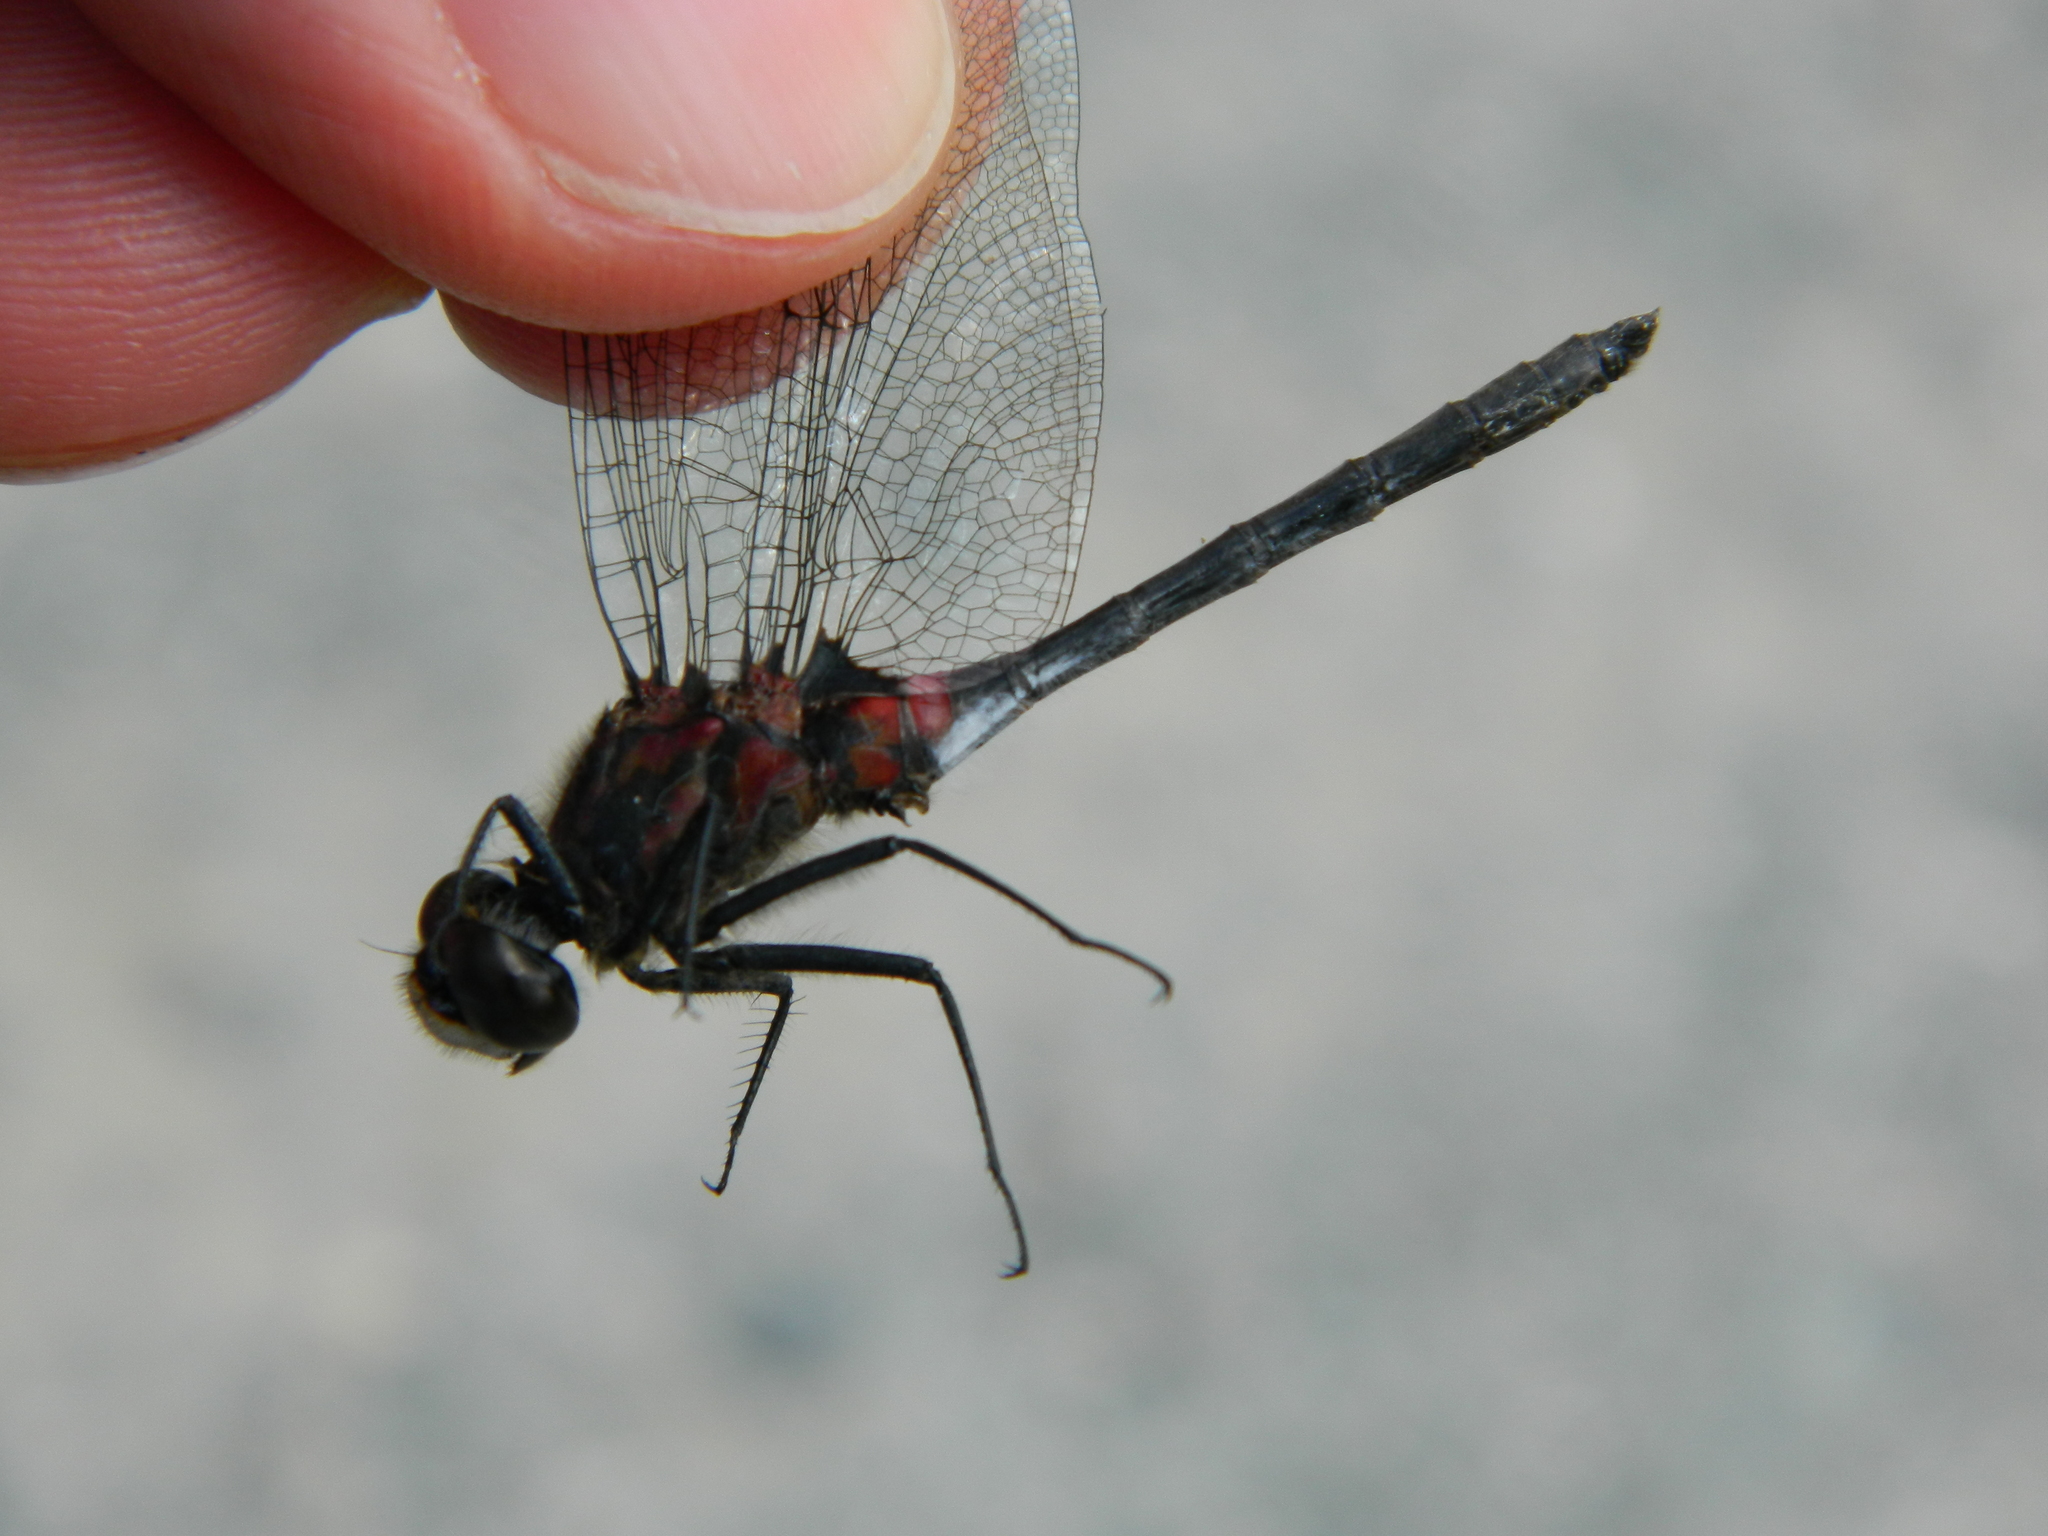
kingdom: Animalia
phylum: Arthropoda
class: Insecta
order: Odonata
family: Libellulidae
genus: Leucorrhinia
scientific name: Leucorrhinia glacialis
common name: Crimson-ringed whiteface
